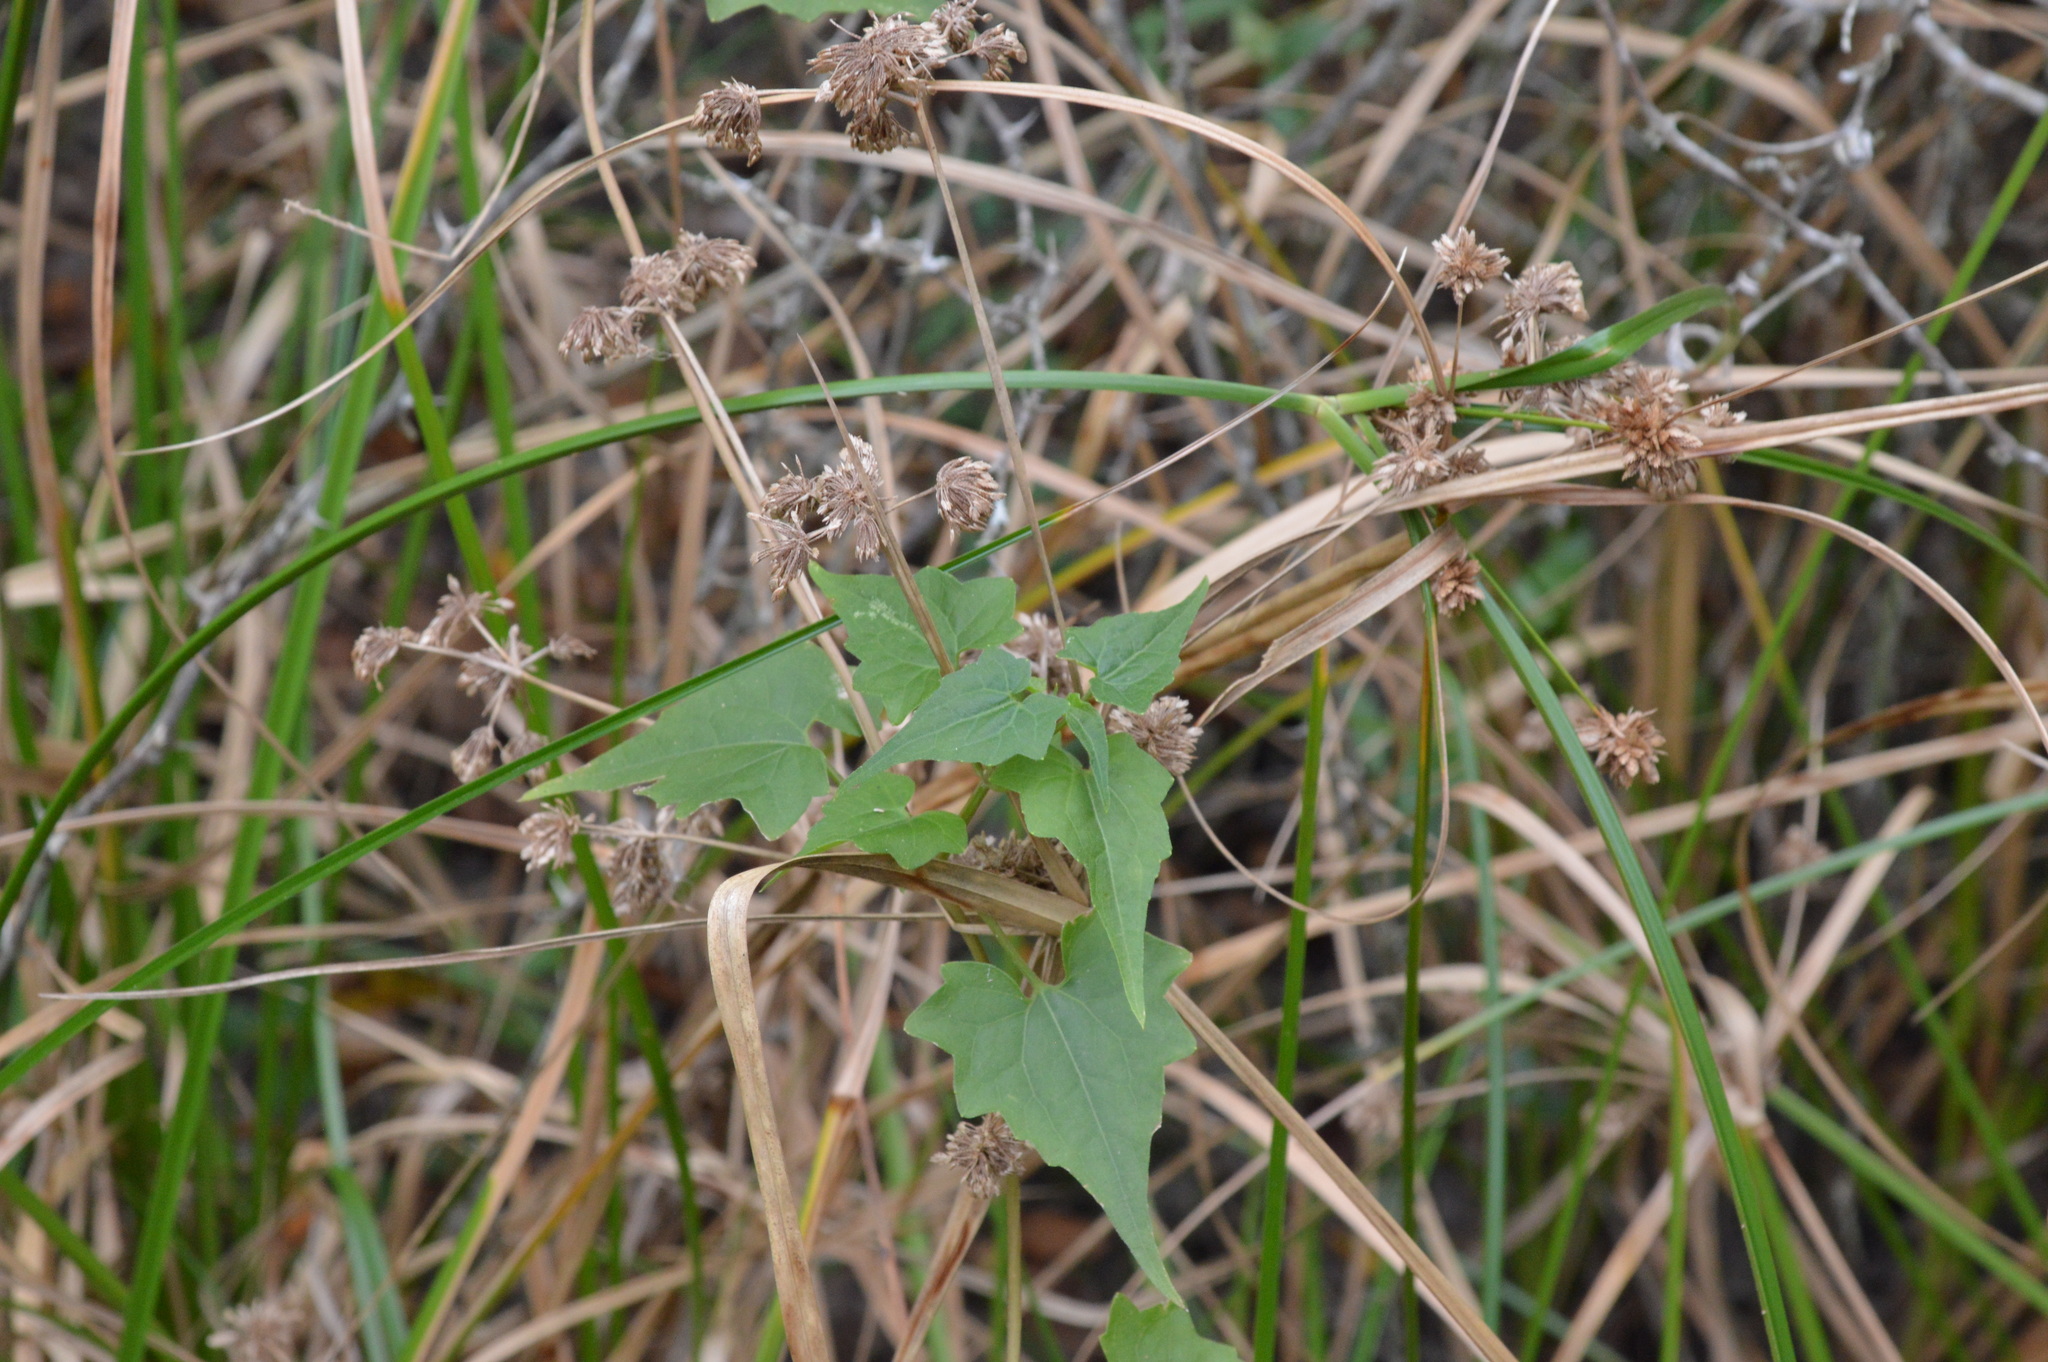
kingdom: Plantae
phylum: Tracheophyta
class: Magnoliopsida
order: Asterales
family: Asteraceae
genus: Mikania
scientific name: Mikania scandens
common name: Climbing hempvine
